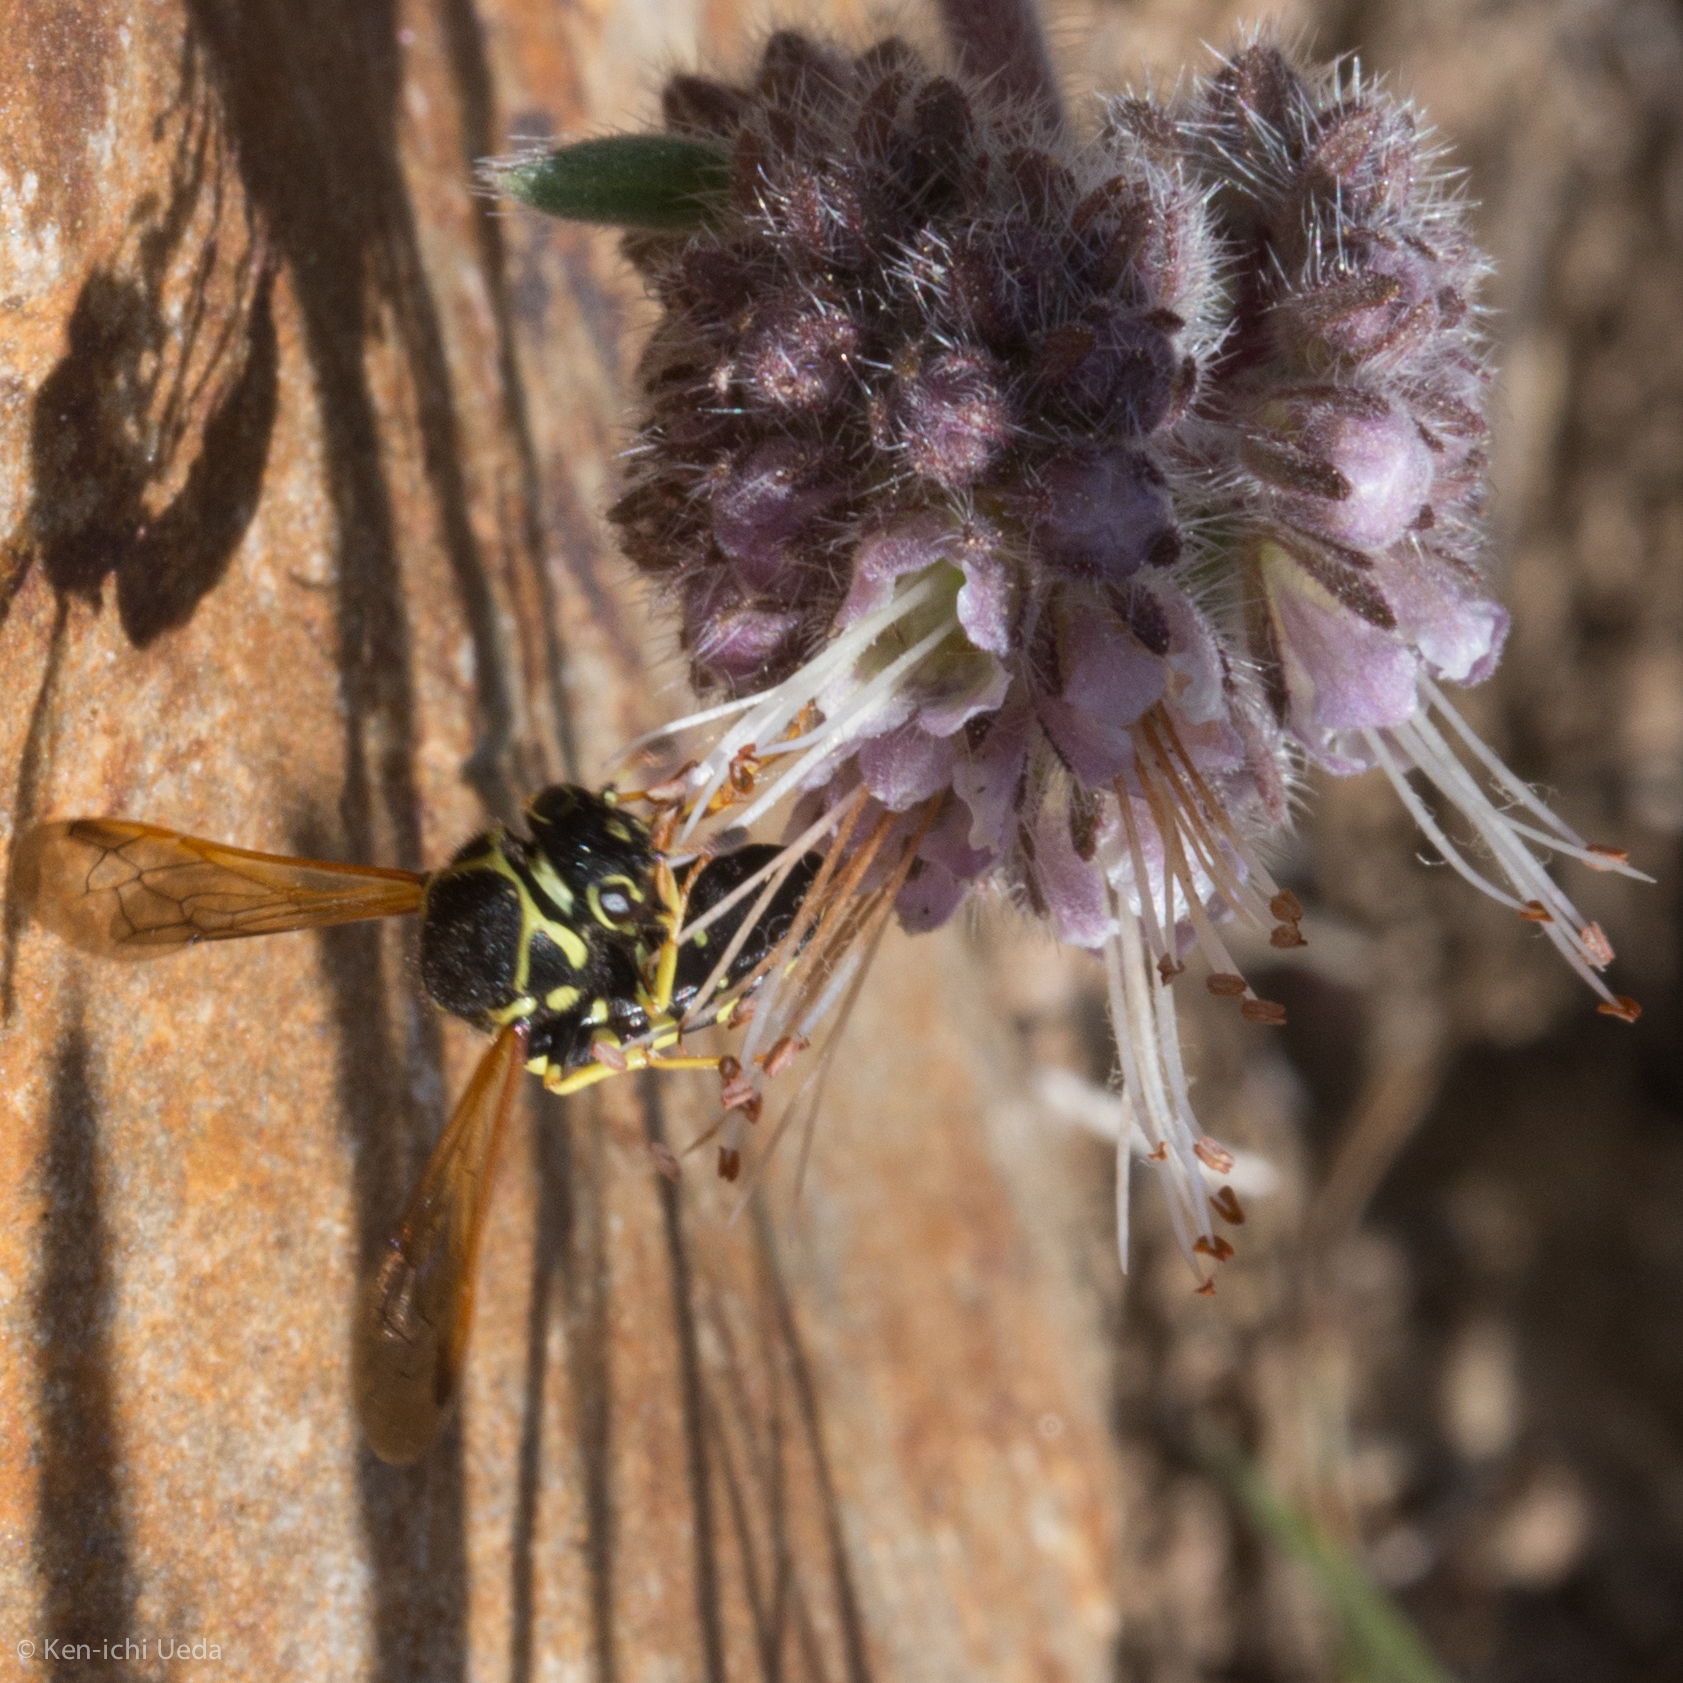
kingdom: Animalia
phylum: Arthropoda
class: Insecta
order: Hymenoptera
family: Masaridae
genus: Pseudomasaris
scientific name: Pseudomasaris zonalis
